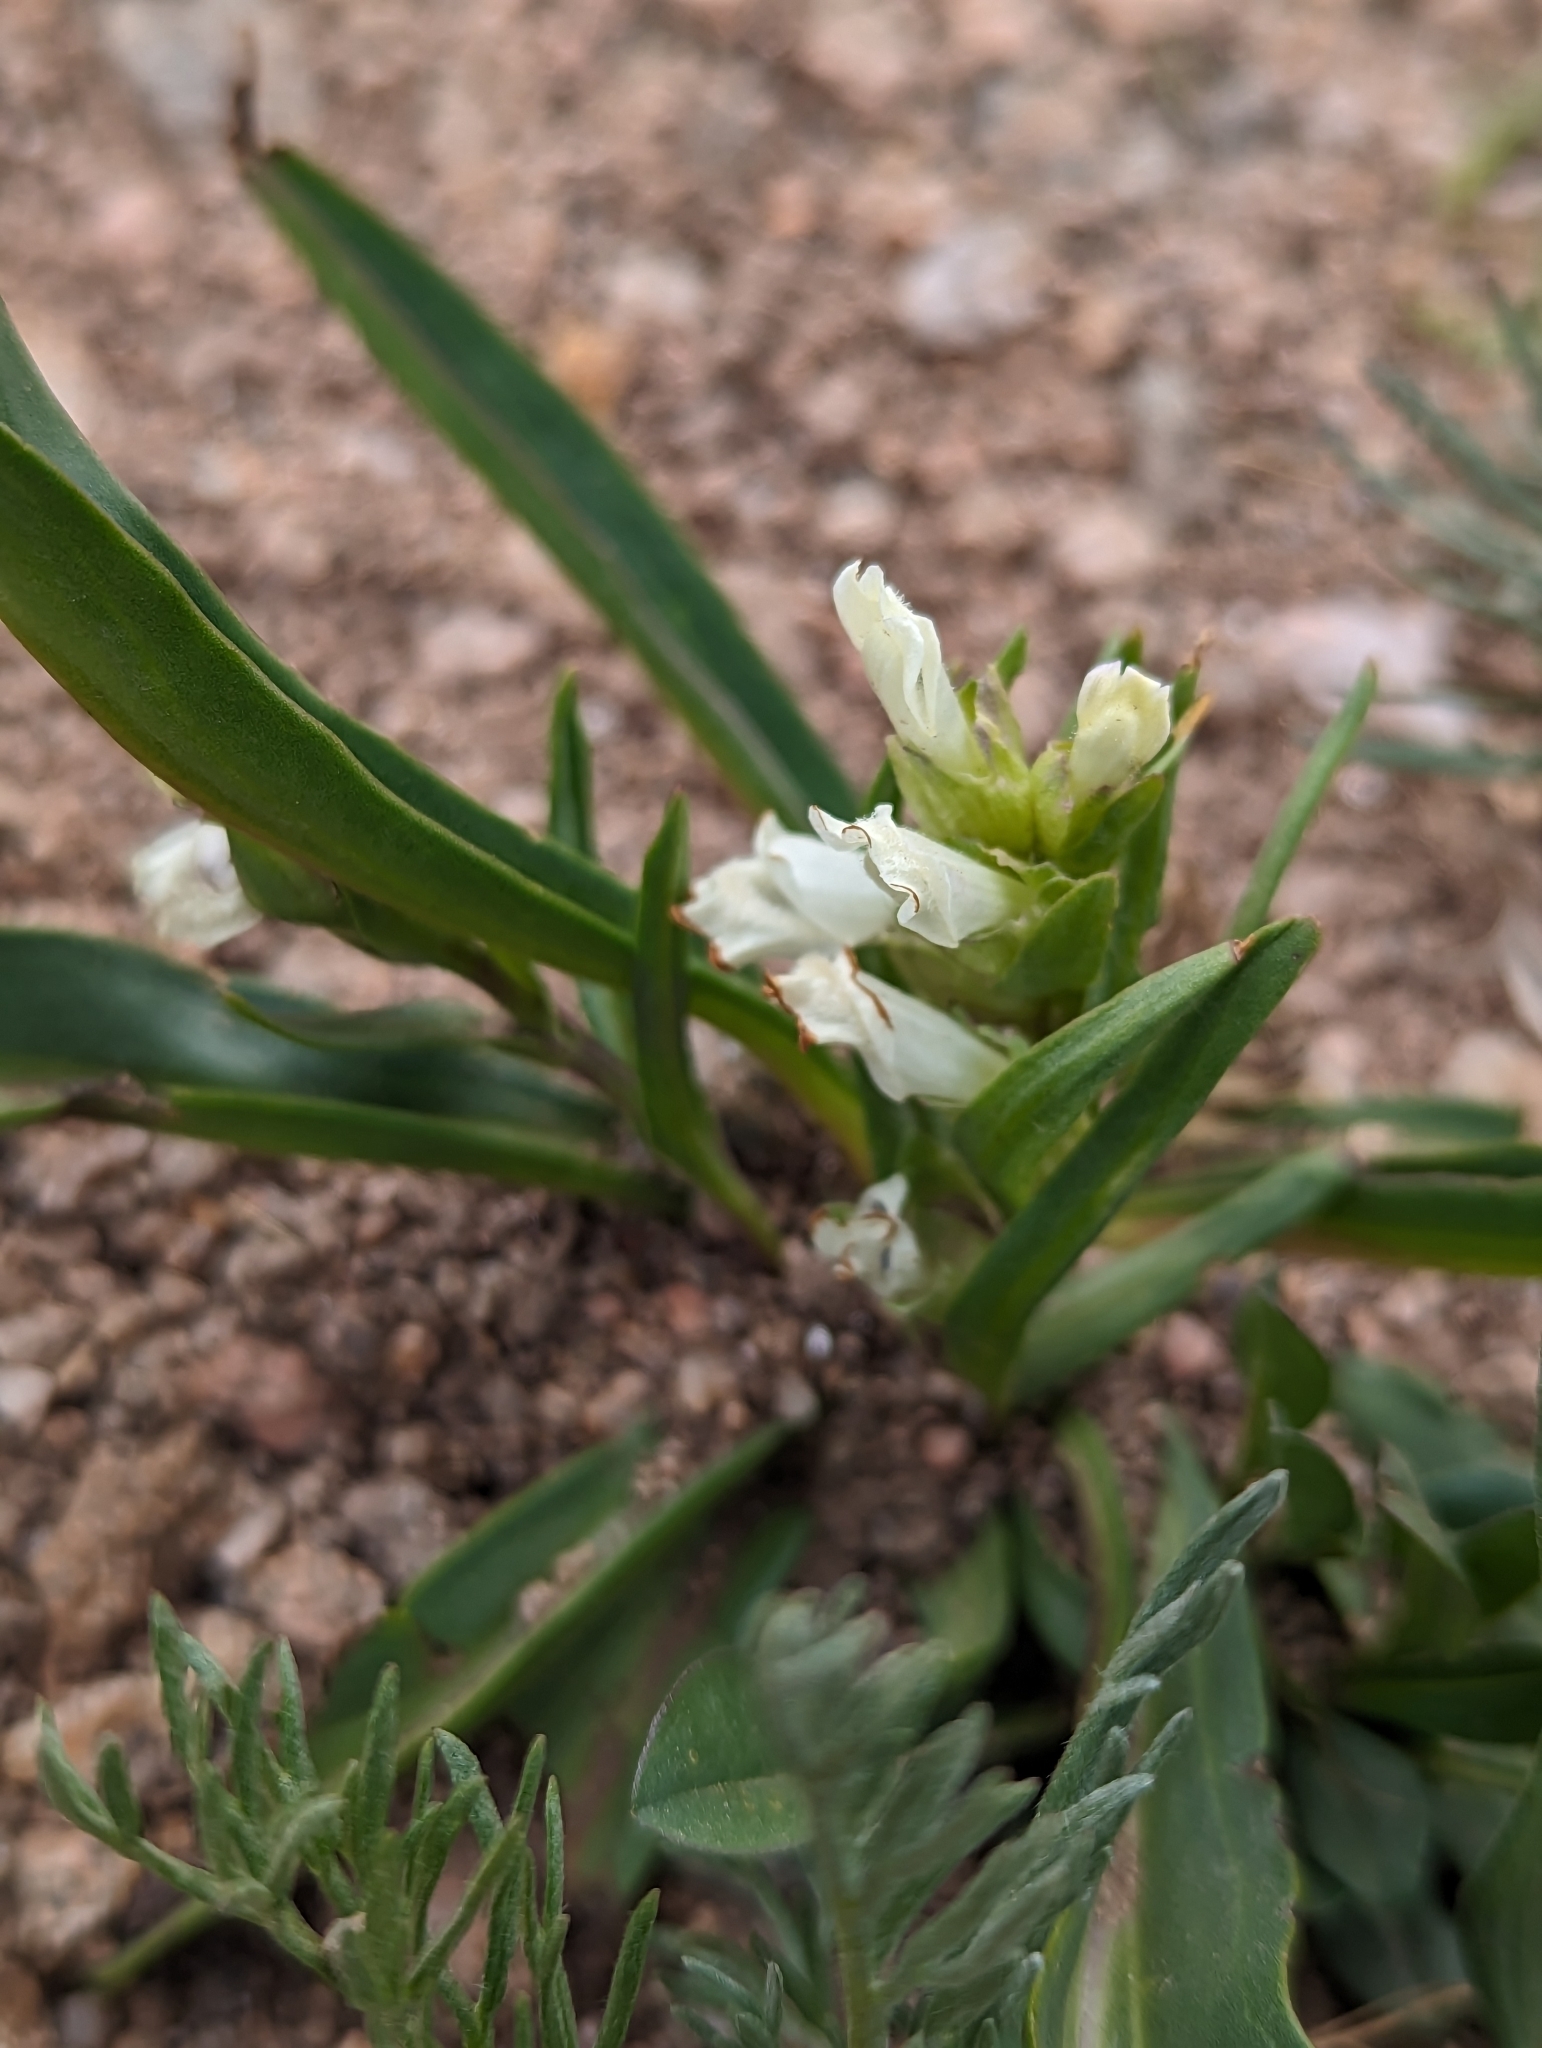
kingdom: Plantae
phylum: Tracheophyta
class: Magnoliopsida
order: Lamiales
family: Plantaginaceae
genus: Chionophila
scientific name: Chionophila jamesii
